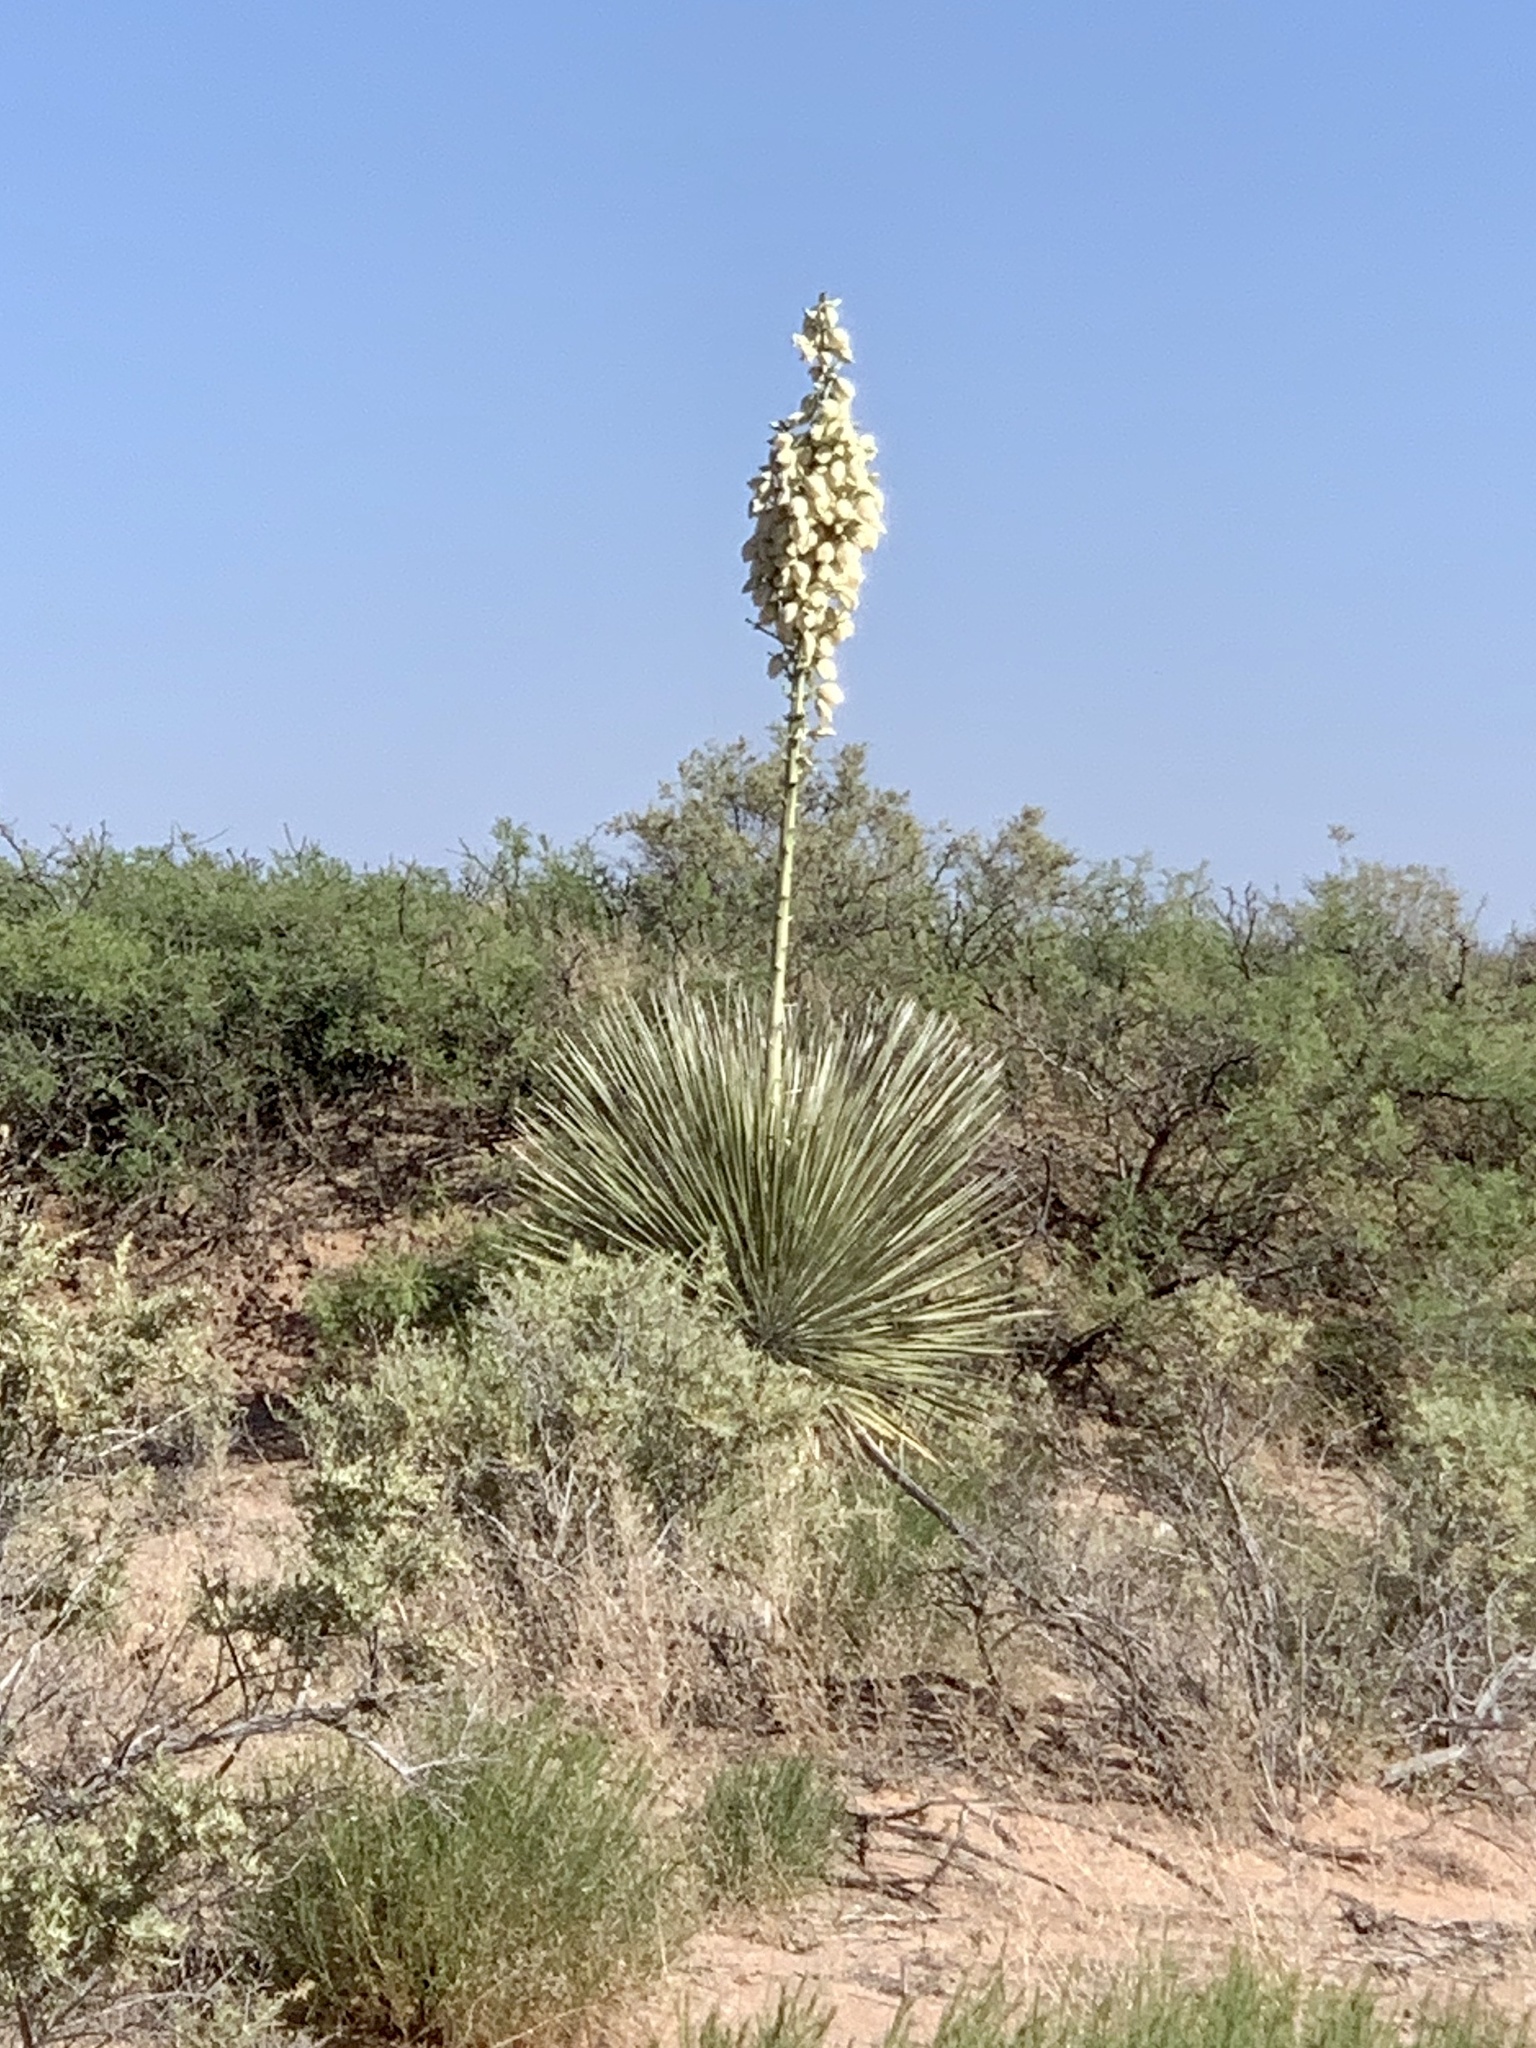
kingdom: Plantae
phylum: Tracheophyta
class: Liliopsida
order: Asparagales
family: Asparagaceae
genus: Yucca
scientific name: Yucca elata
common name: Palmella
